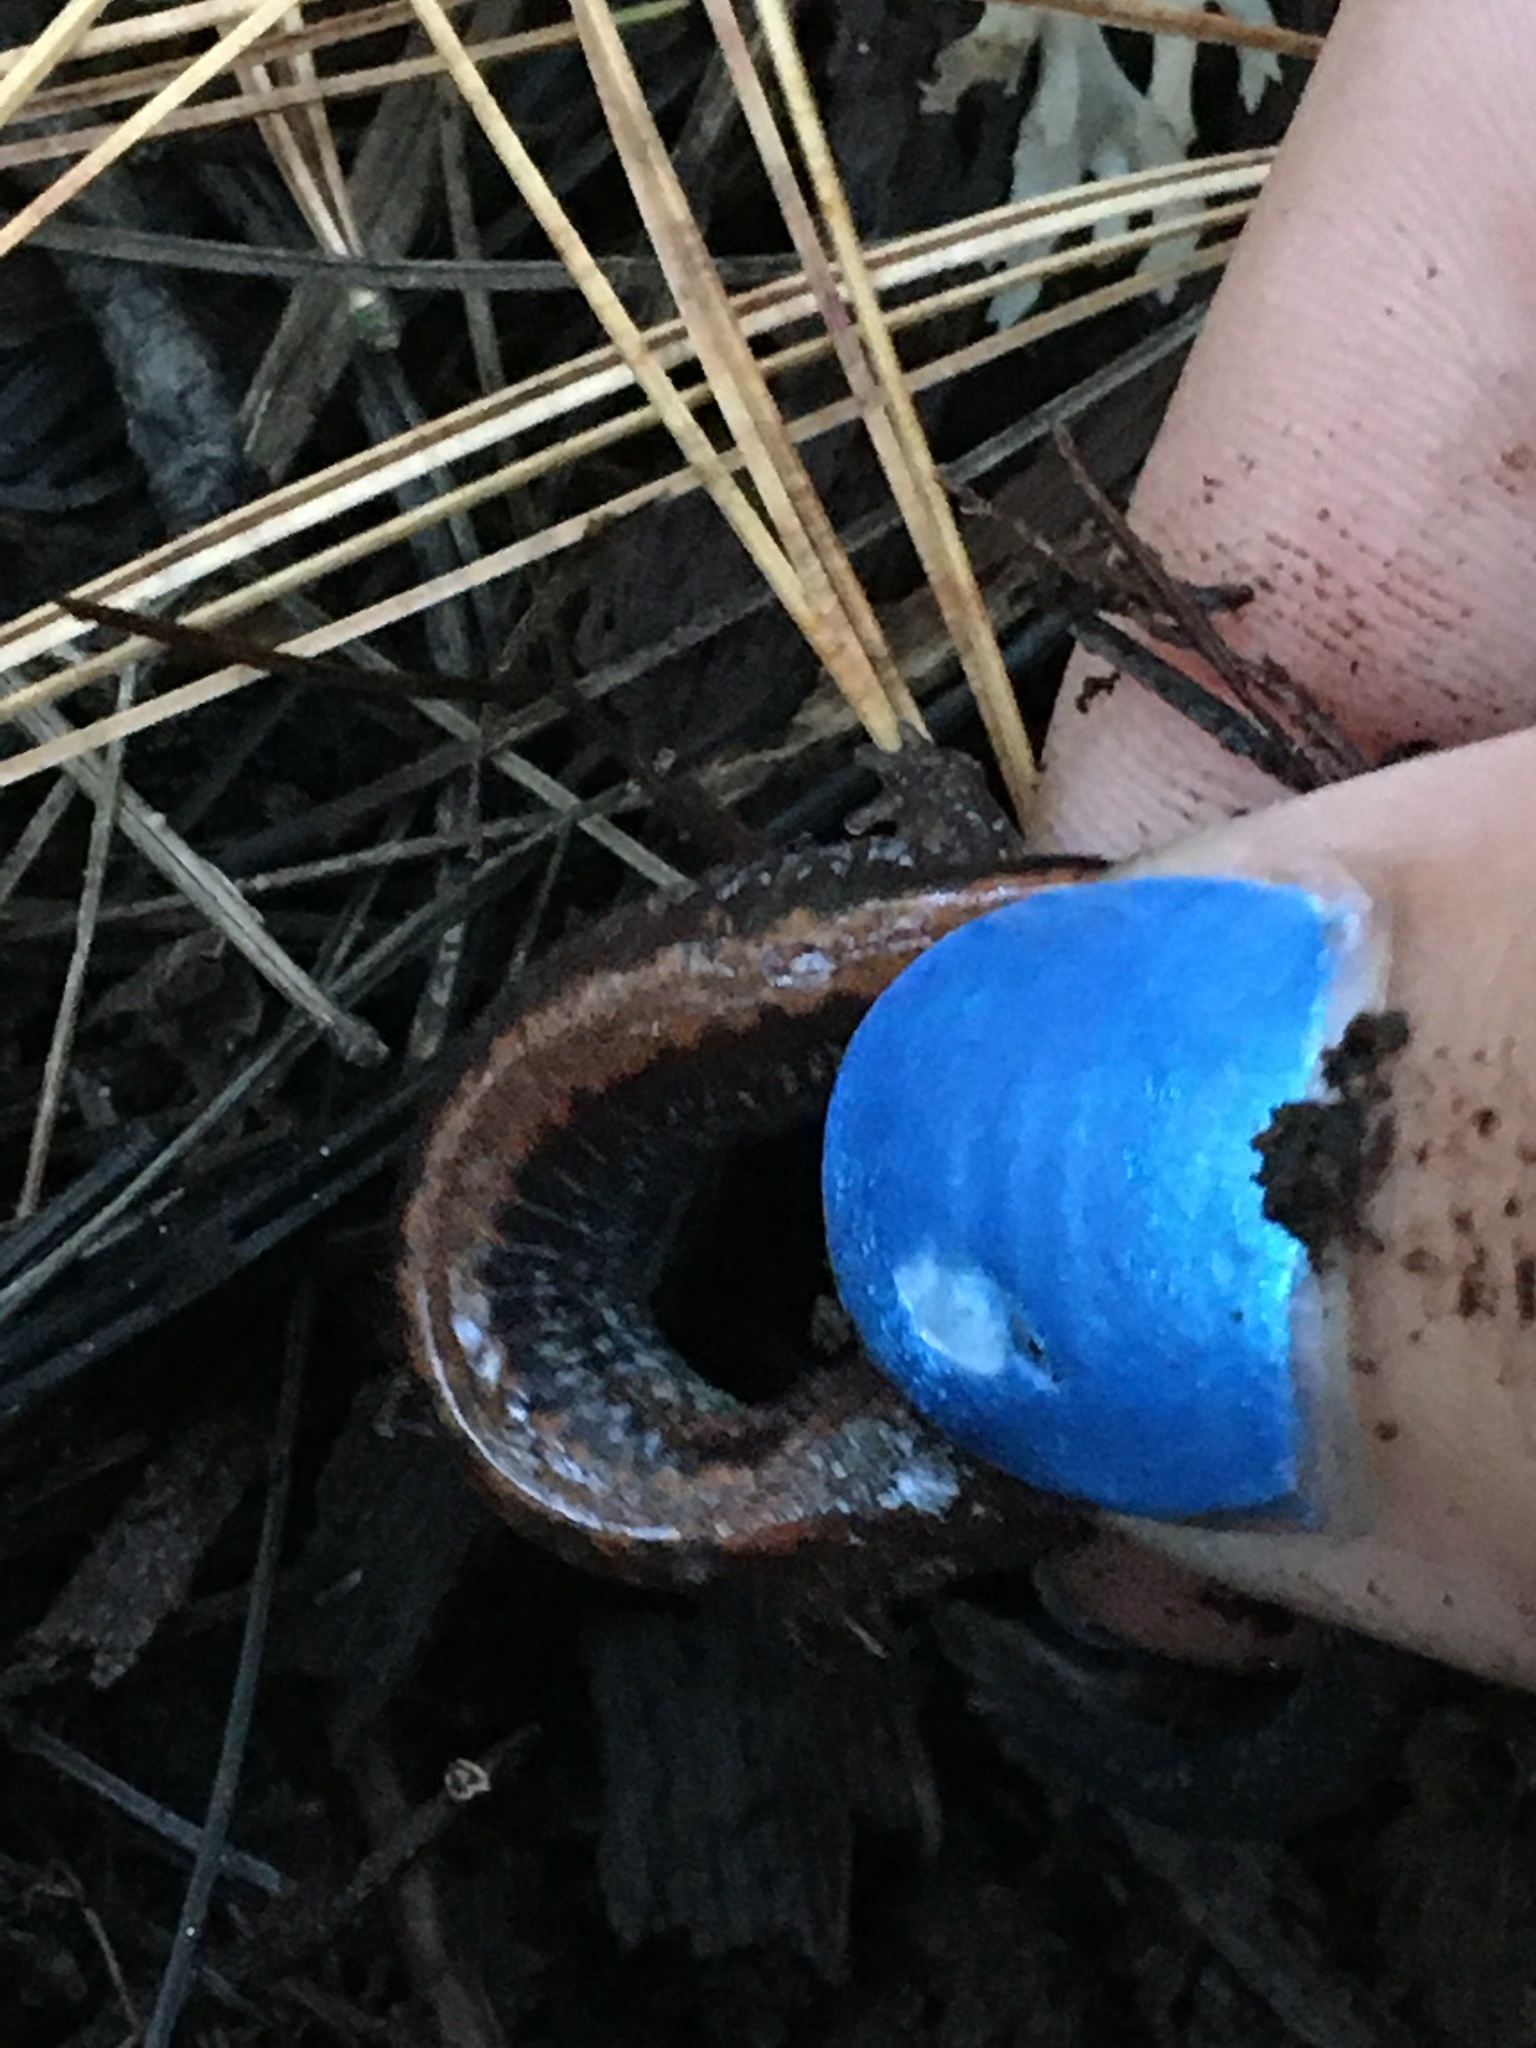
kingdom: Animalia
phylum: Chordata
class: Amphibia
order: Caudata
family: Plethodontidae
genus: Plethodon
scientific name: Plethodon cinereus
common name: Redback salamander
